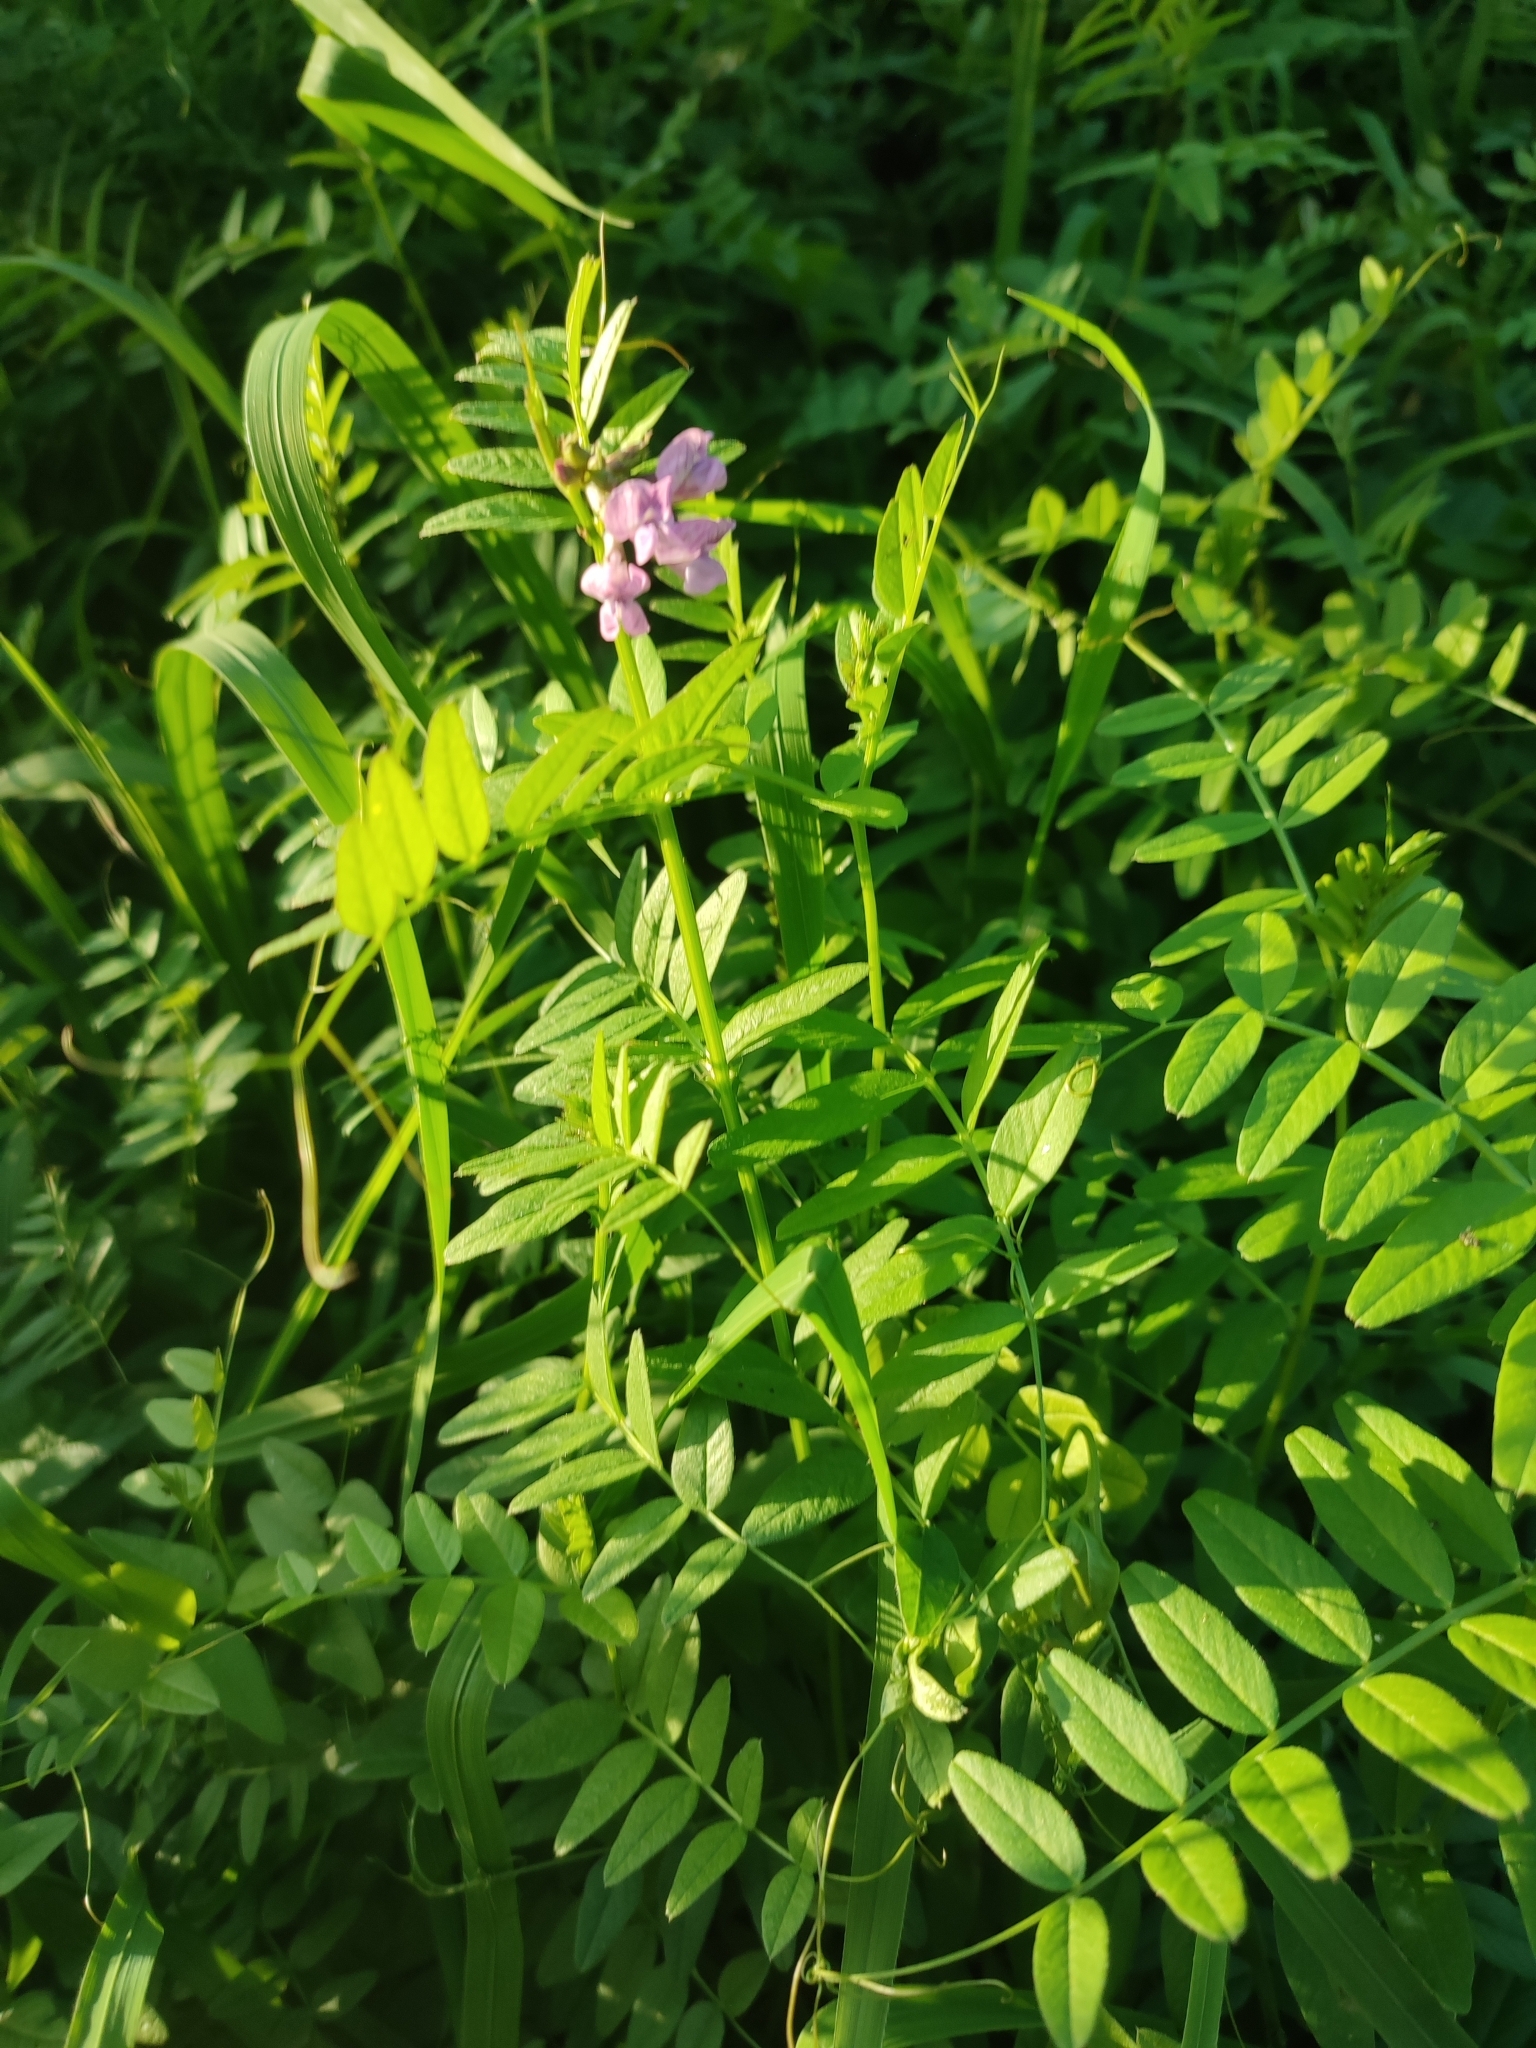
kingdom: Plantae
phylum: Tracheophyta
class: Magnoliopsida
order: Fabales
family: Fabaceae
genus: Vicia
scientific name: Vicia sepium
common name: Bush vetch
